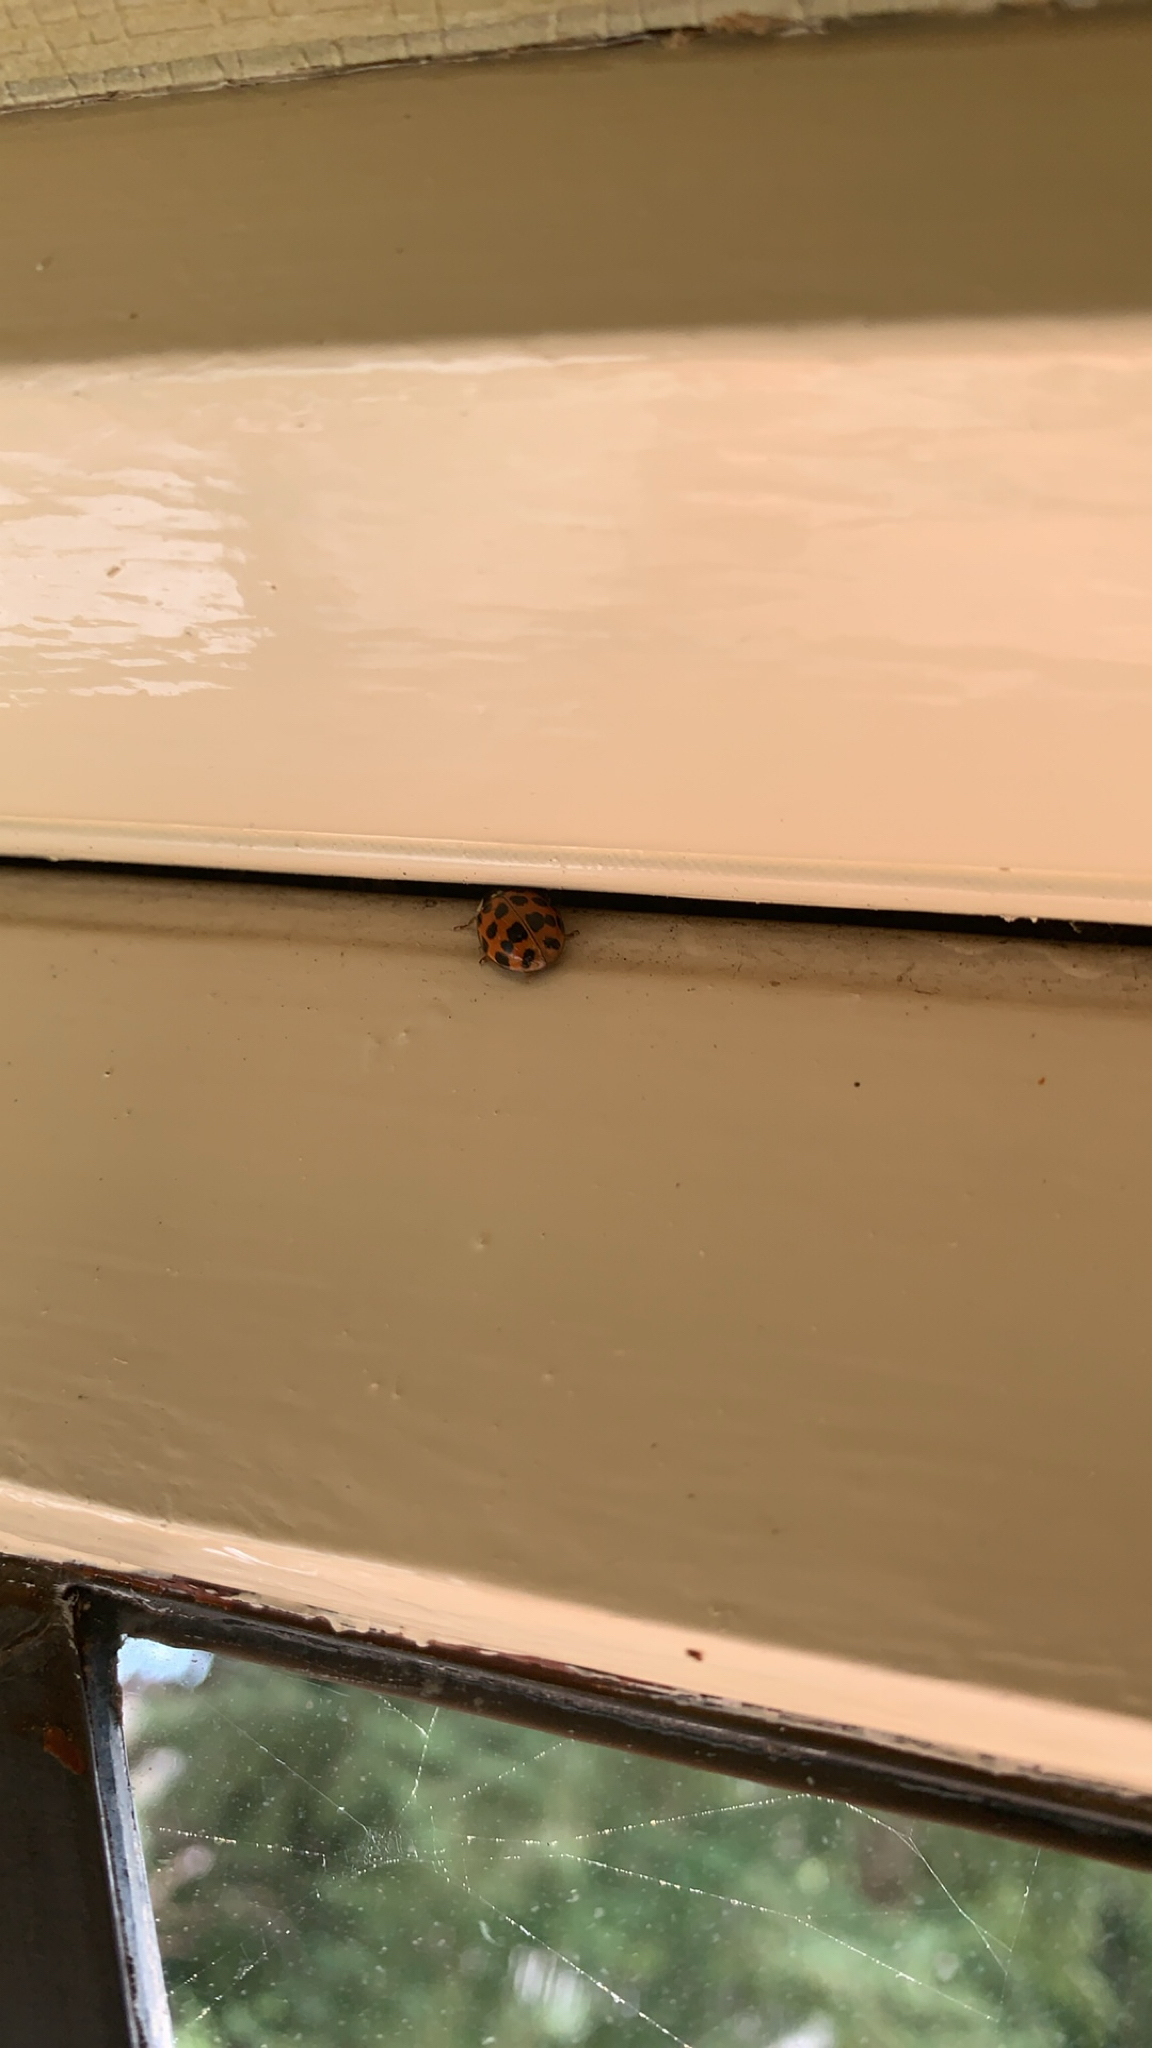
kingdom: Animalia
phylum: Arthropoda
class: Insecta
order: Coleoptera
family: Coccinellidae
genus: Harmonia
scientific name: Harmonia axyridis
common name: Harlequin ladybird
